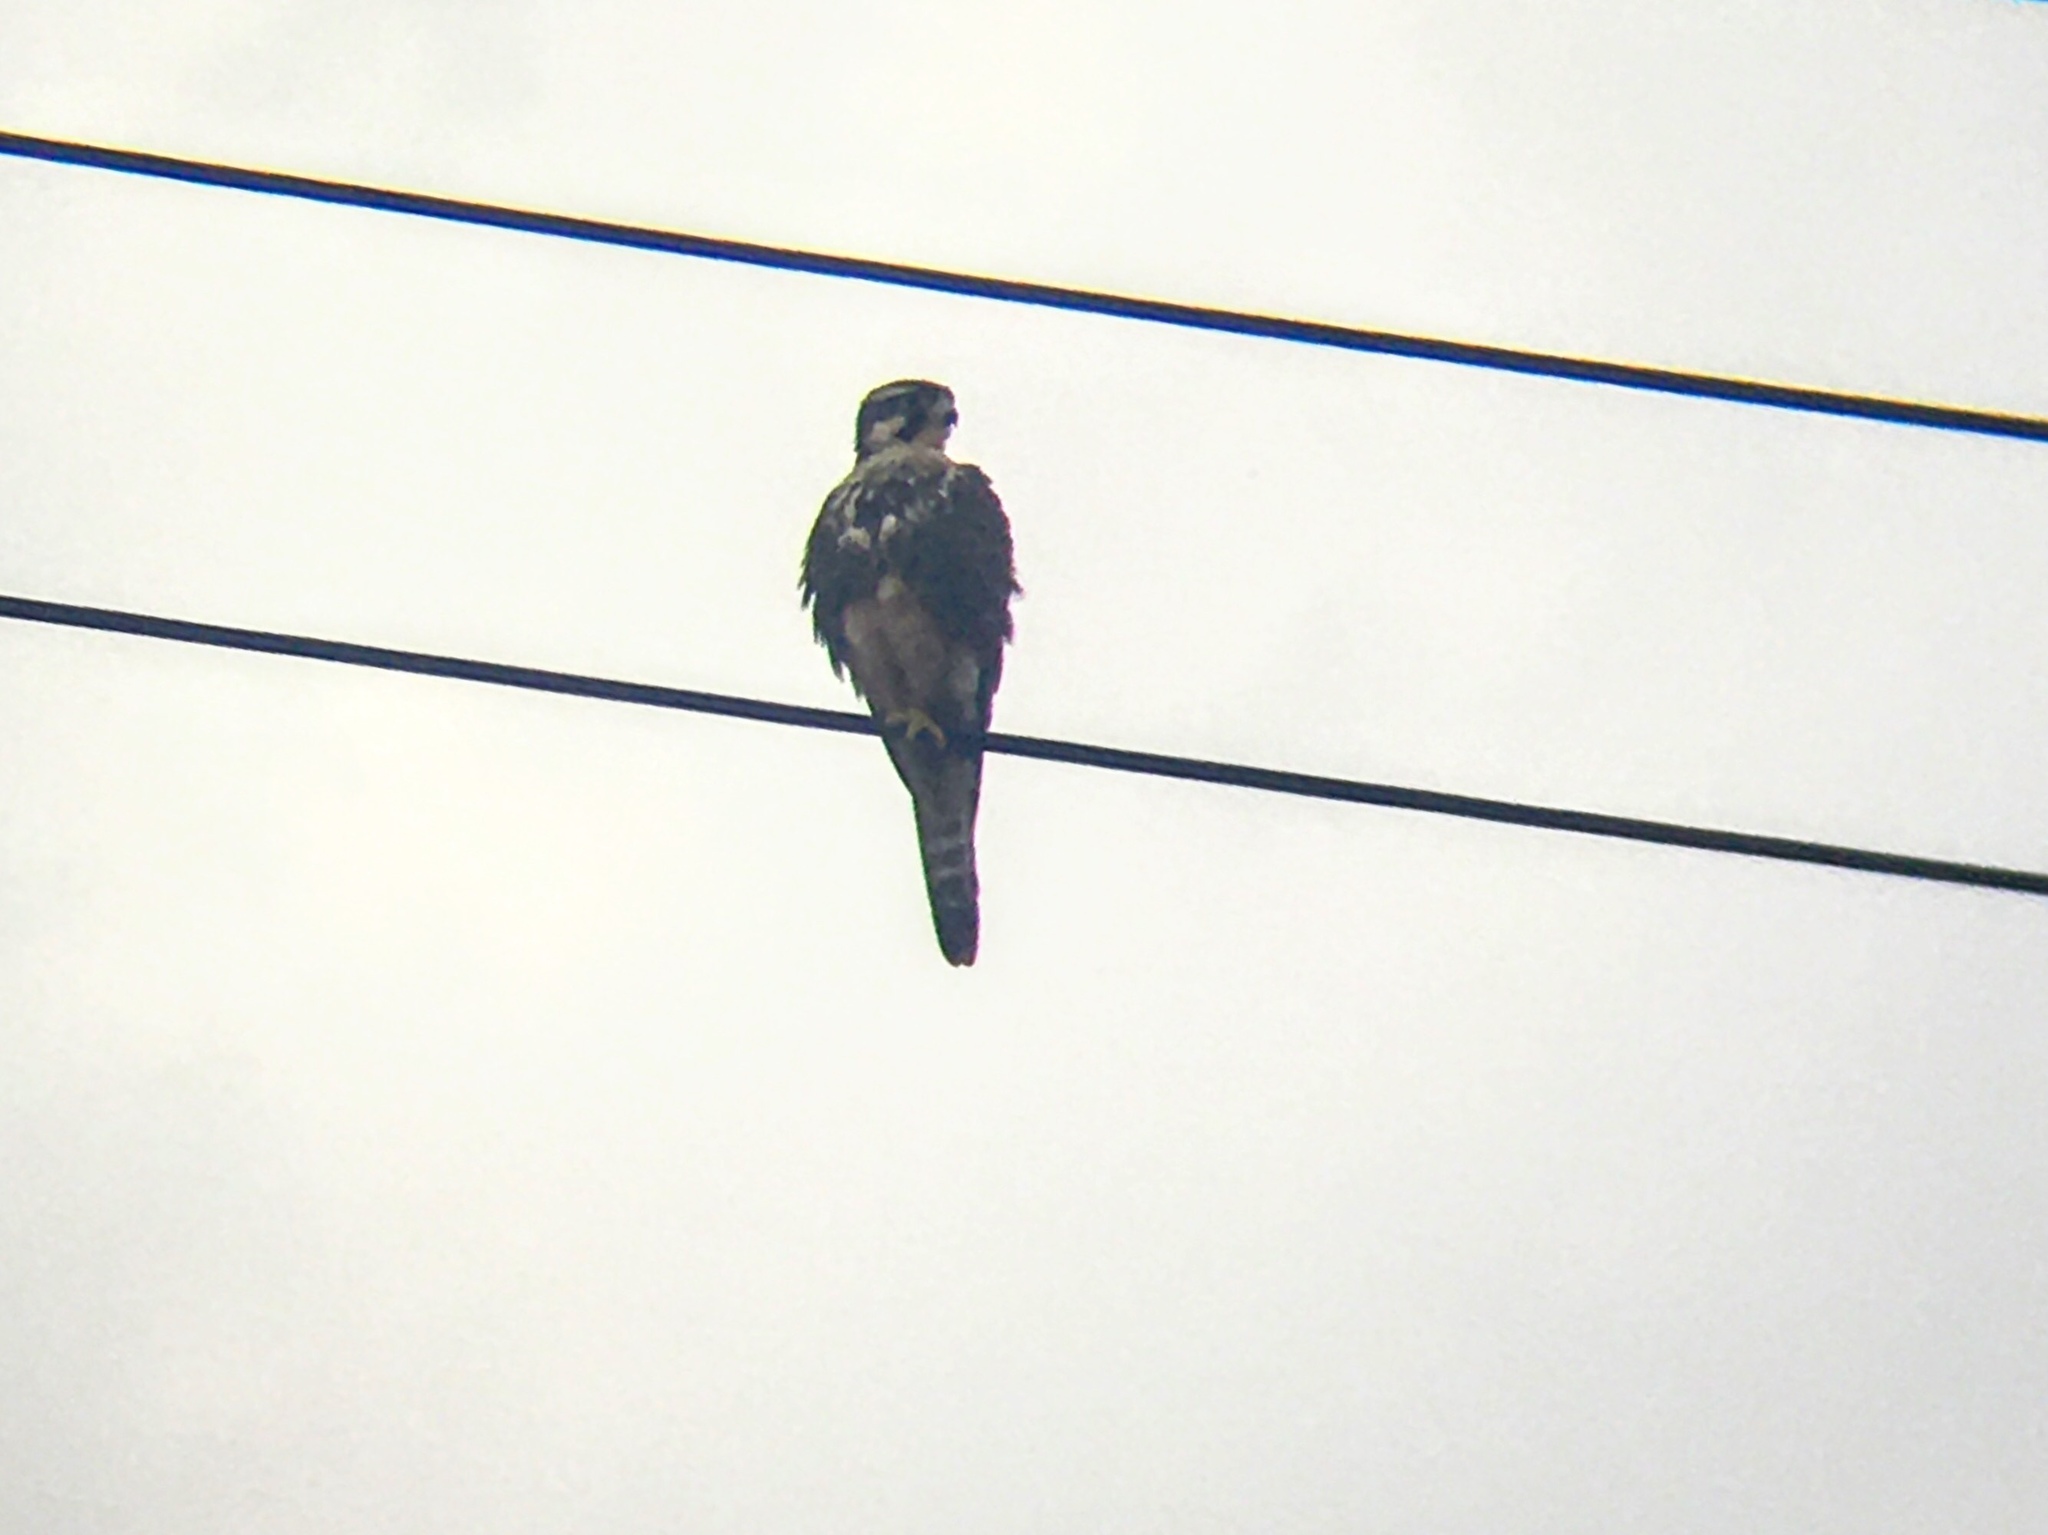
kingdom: Animalia
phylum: Chordata
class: Aves
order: Falconiformes
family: Falconidae
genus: Falco
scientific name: Falco femoralis
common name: Aplomado falcon
